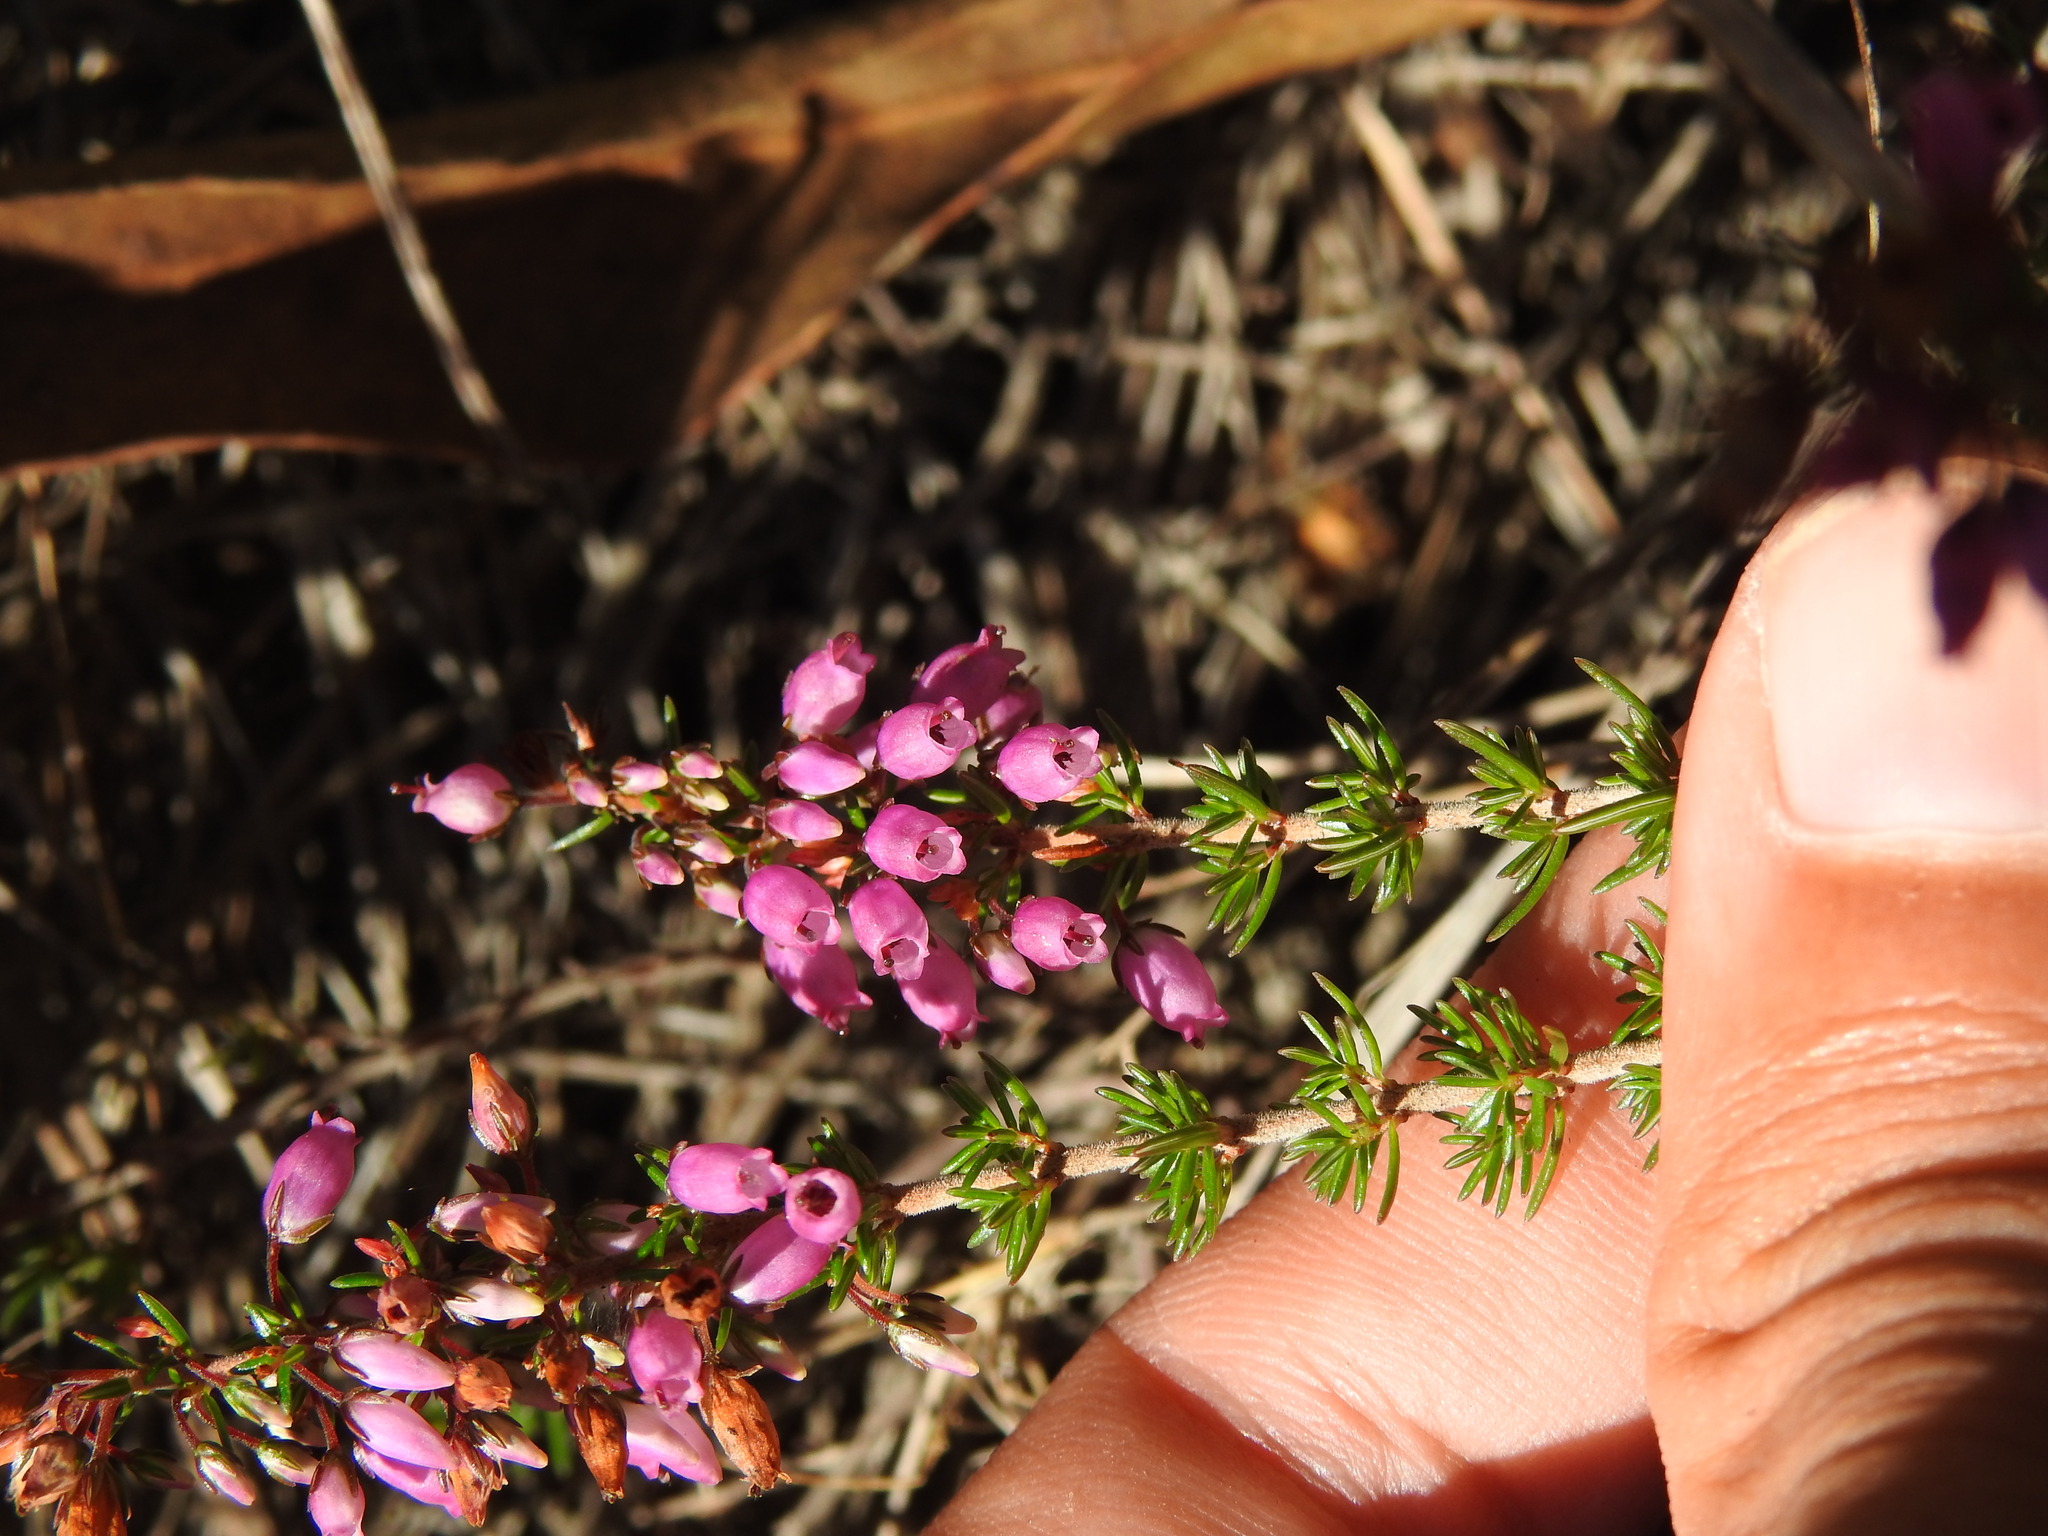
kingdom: Plantae
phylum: Tracheophyta
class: Magnoliopsida
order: Ericales
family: Ericaceae
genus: Erica
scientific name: Erica cinerea
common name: Bell heather
